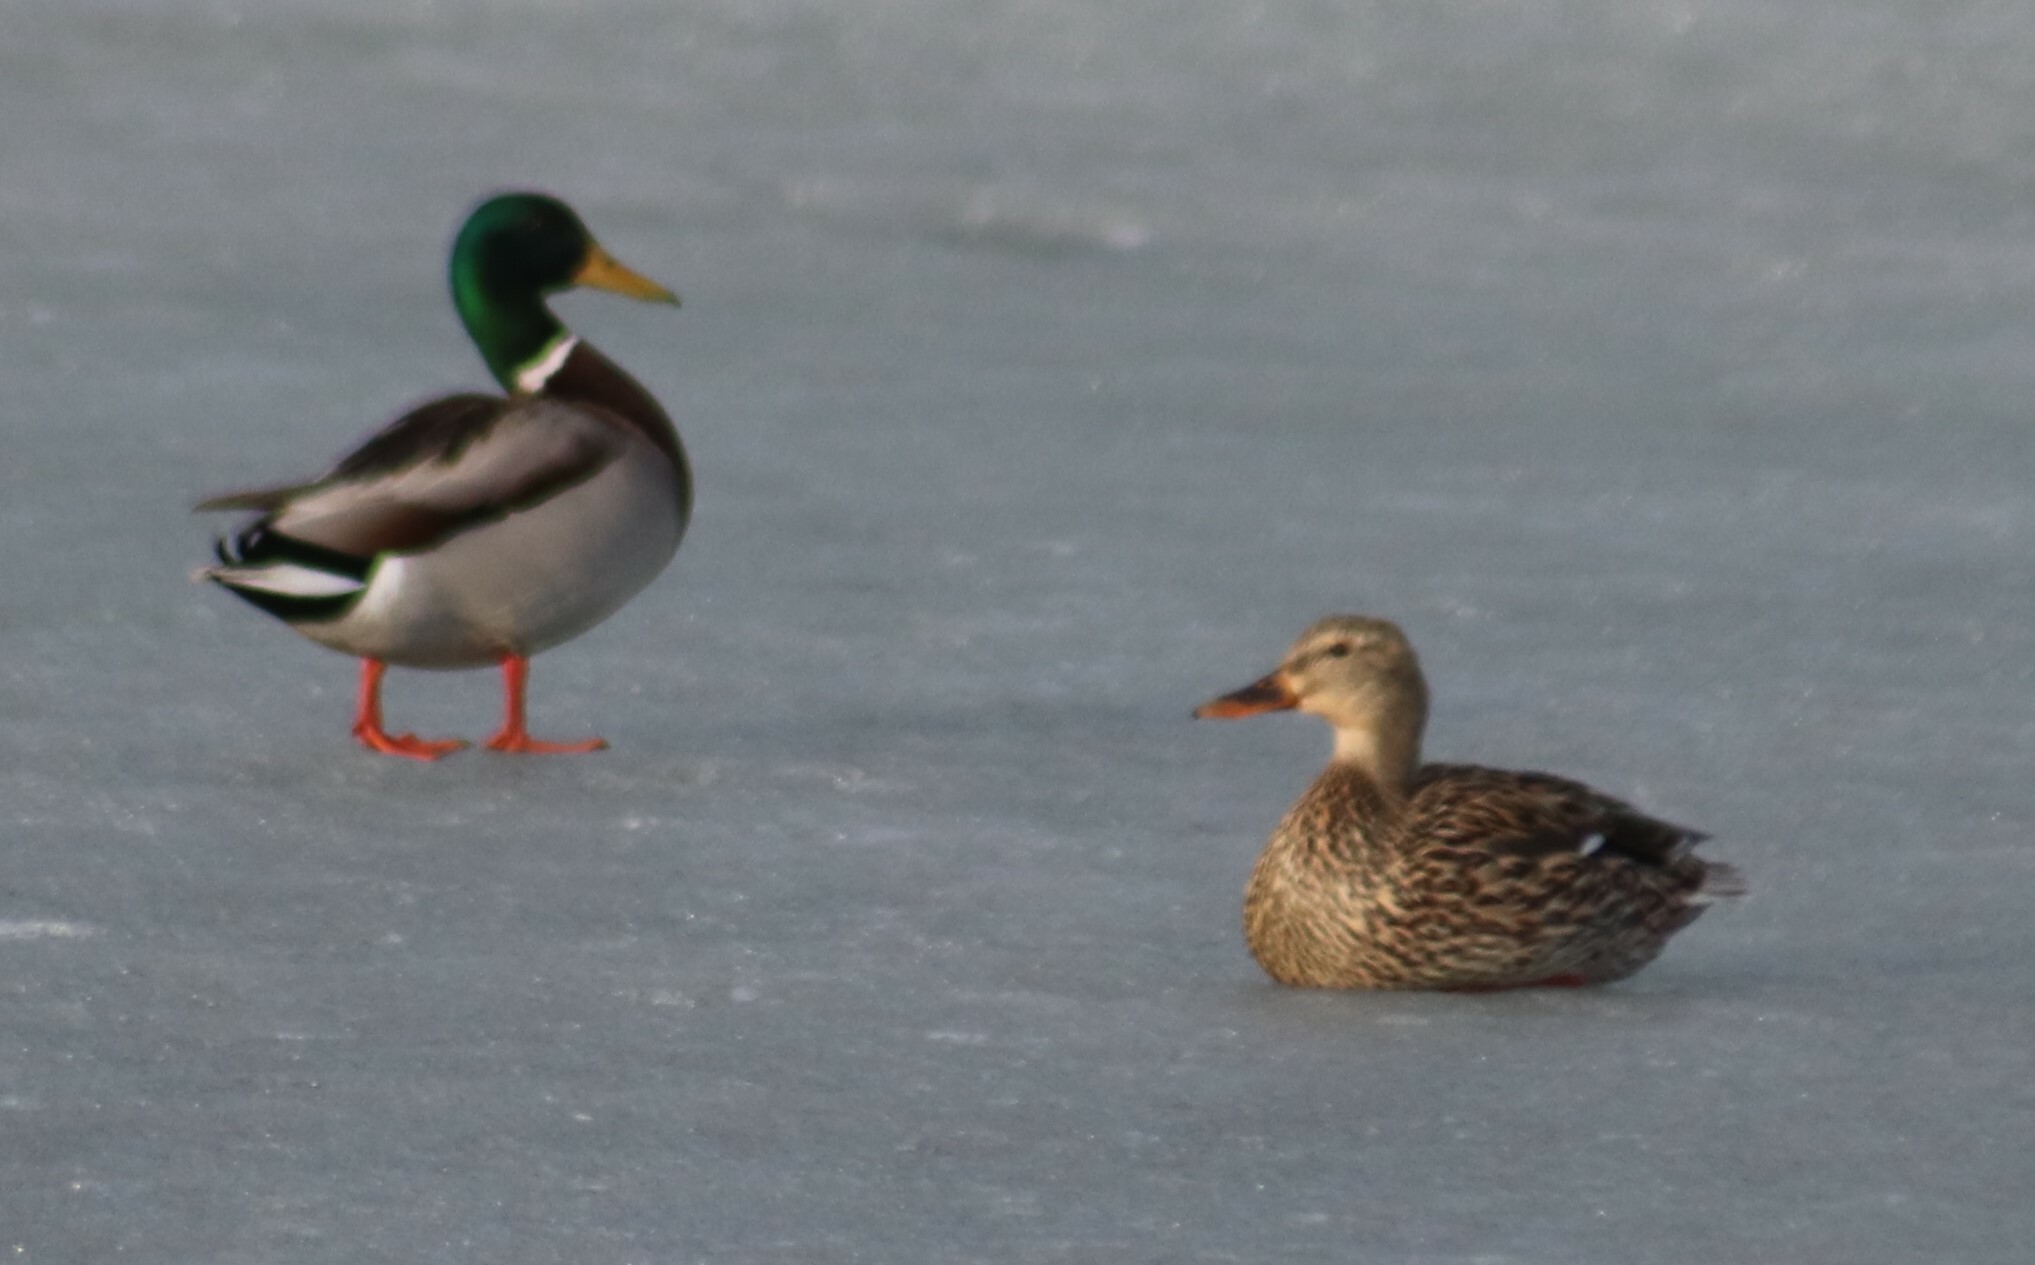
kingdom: Animalia
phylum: Chordata
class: Aves
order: Anseriformes
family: Anatidae
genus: Anas
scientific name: Anas platyrhynchos
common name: Mallard
